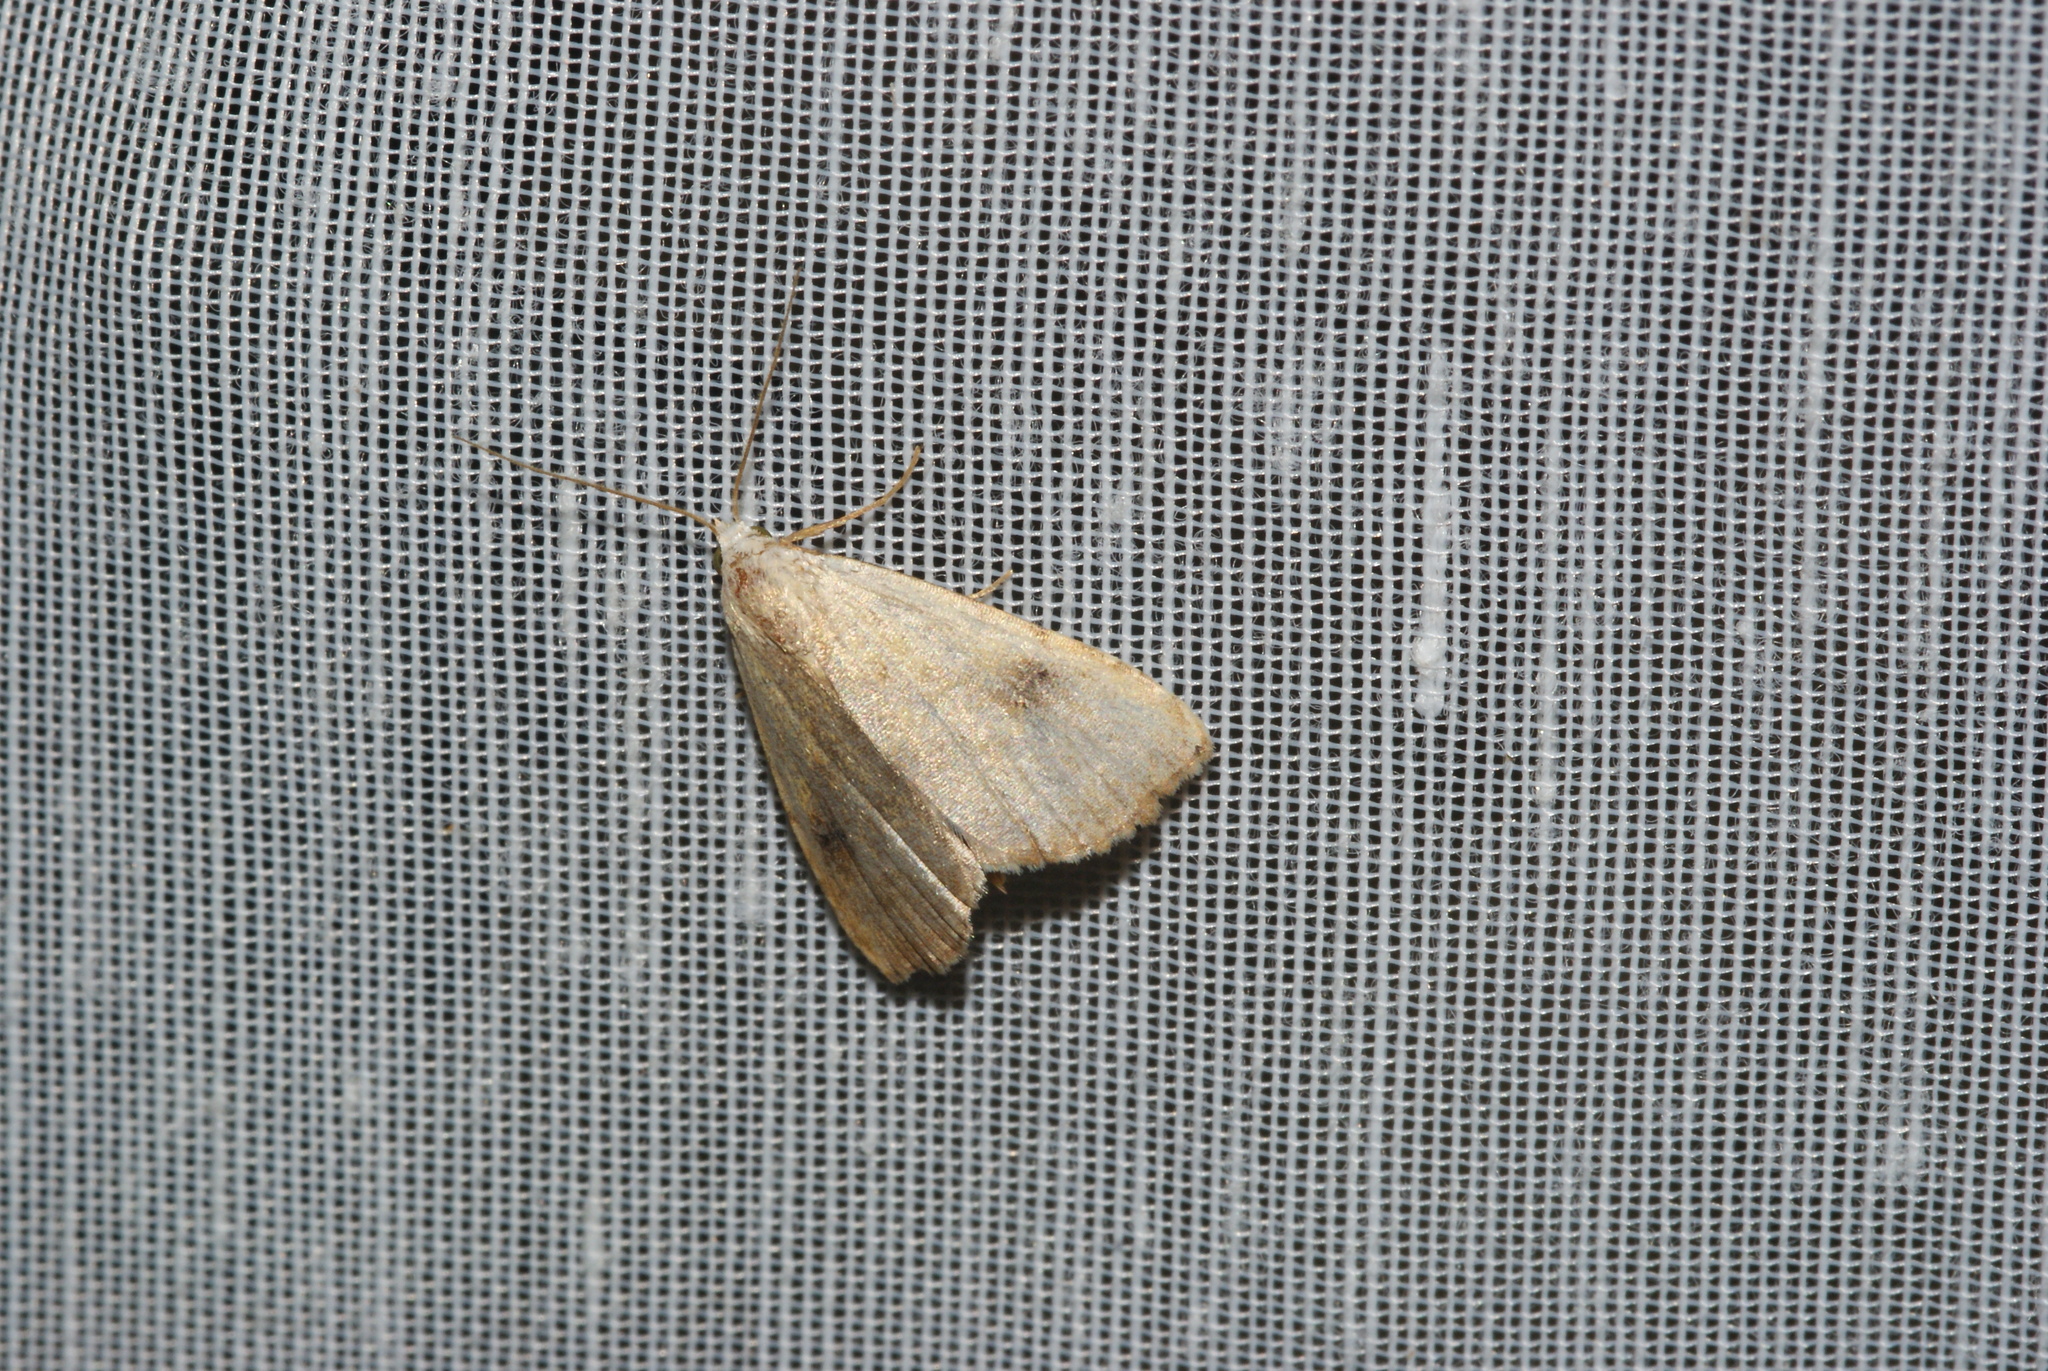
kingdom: Animalia
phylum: Arthropoda
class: Insecta
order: Lepidoptera
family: Erebidae
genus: Rivula
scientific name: Rivula sericealis
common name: Straw dot
